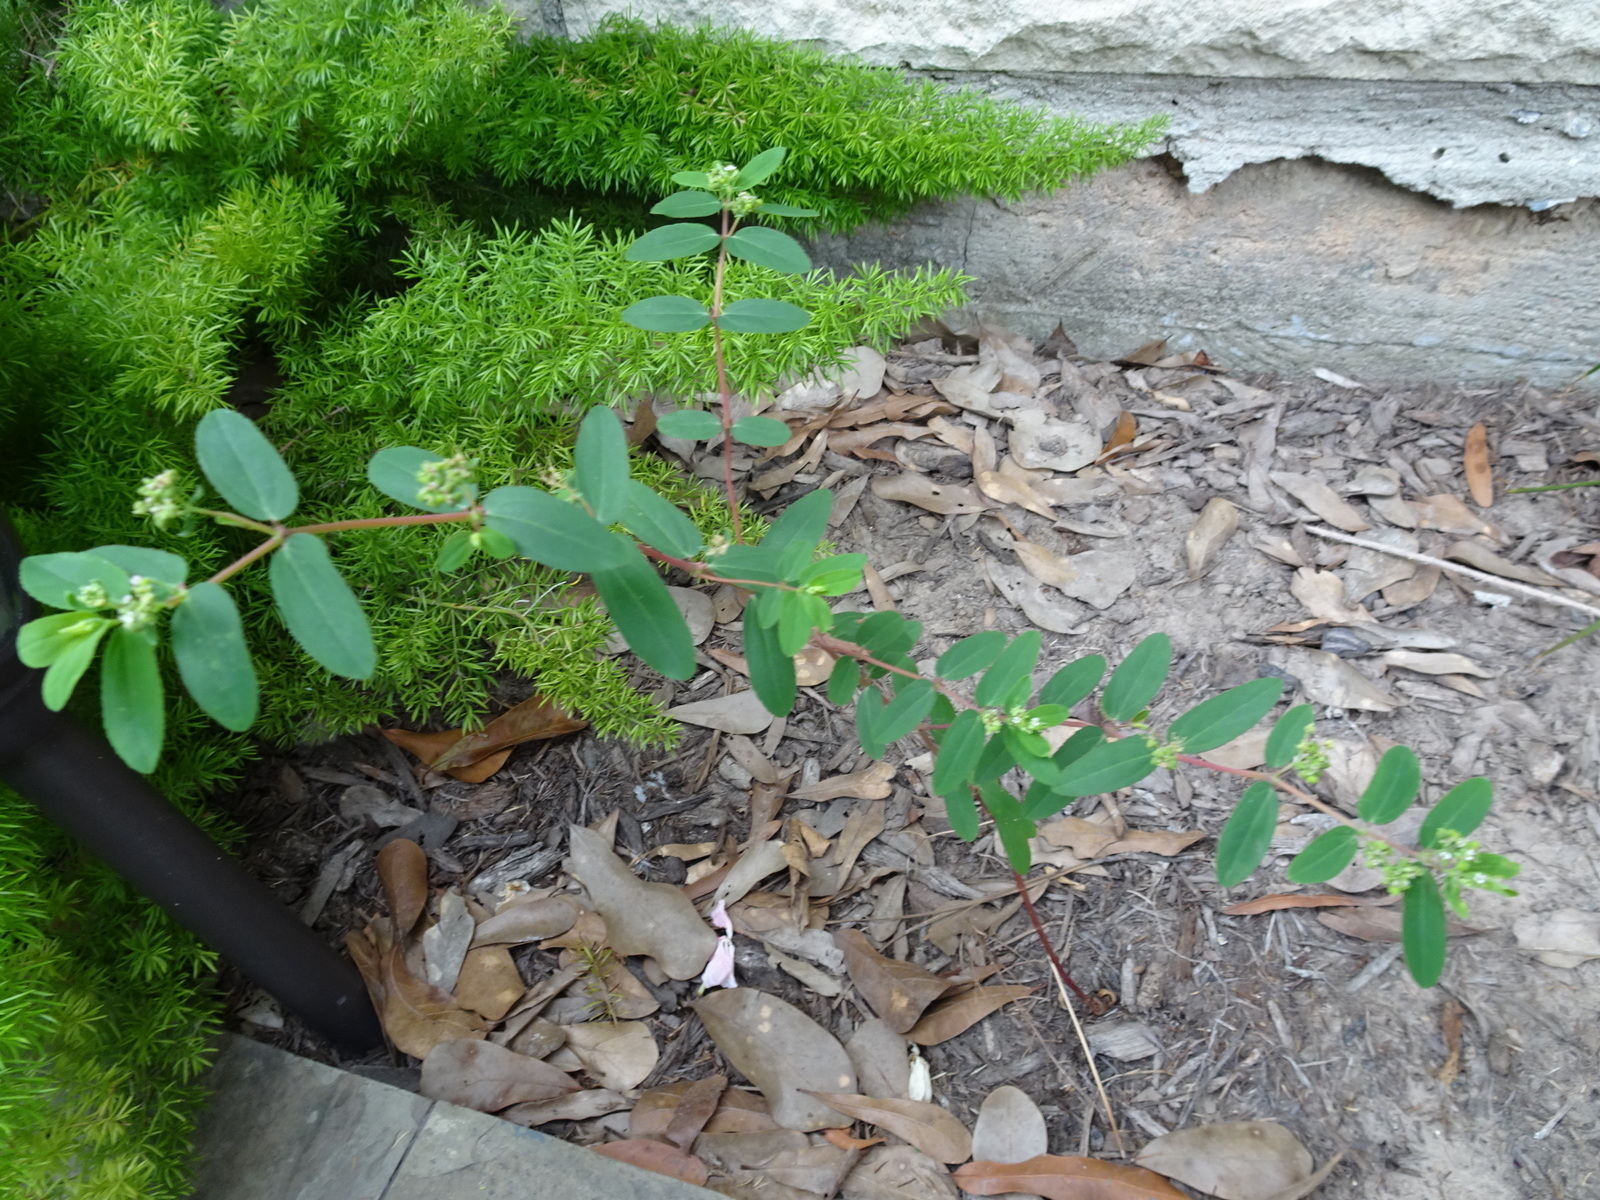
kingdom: Plantae
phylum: Tracheophyta
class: Magnoliopsida
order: Malpighiales
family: Euphorbiaceae
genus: Euphorbia
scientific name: Euphorbia hypericifolia
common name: Graceful sandmat
